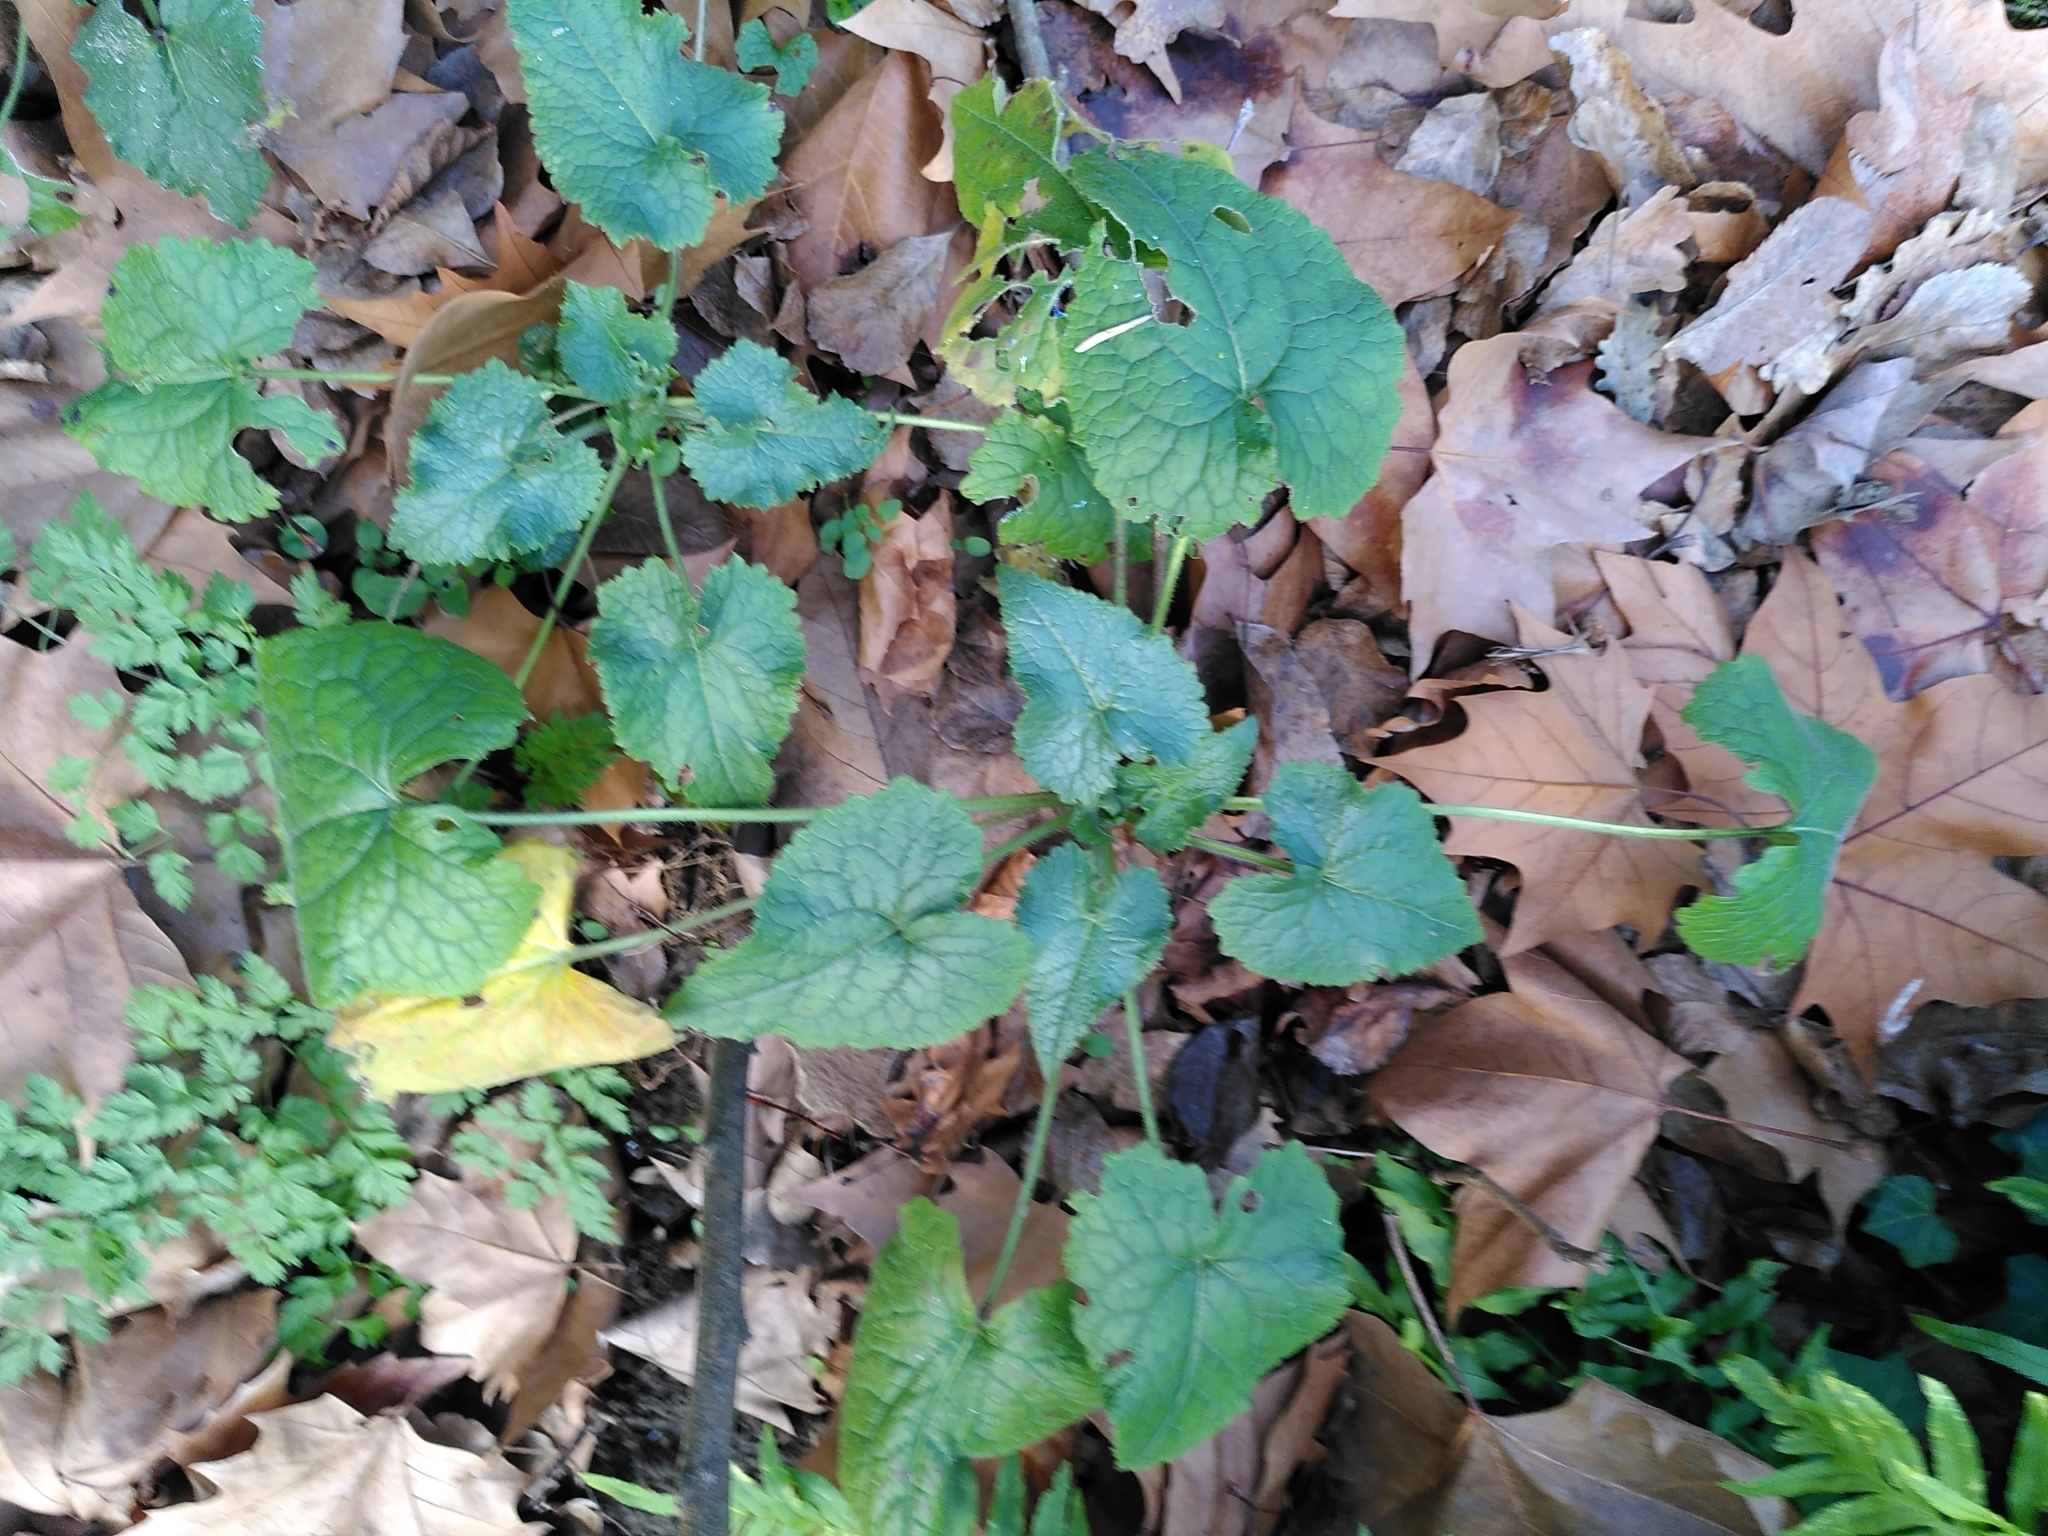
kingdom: Plantae
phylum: Tracheophyta
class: Magnoliopsida
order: Brassicales
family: Brassicaceae
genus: Lunaria
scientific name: Lunaria annua
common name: Honesty
